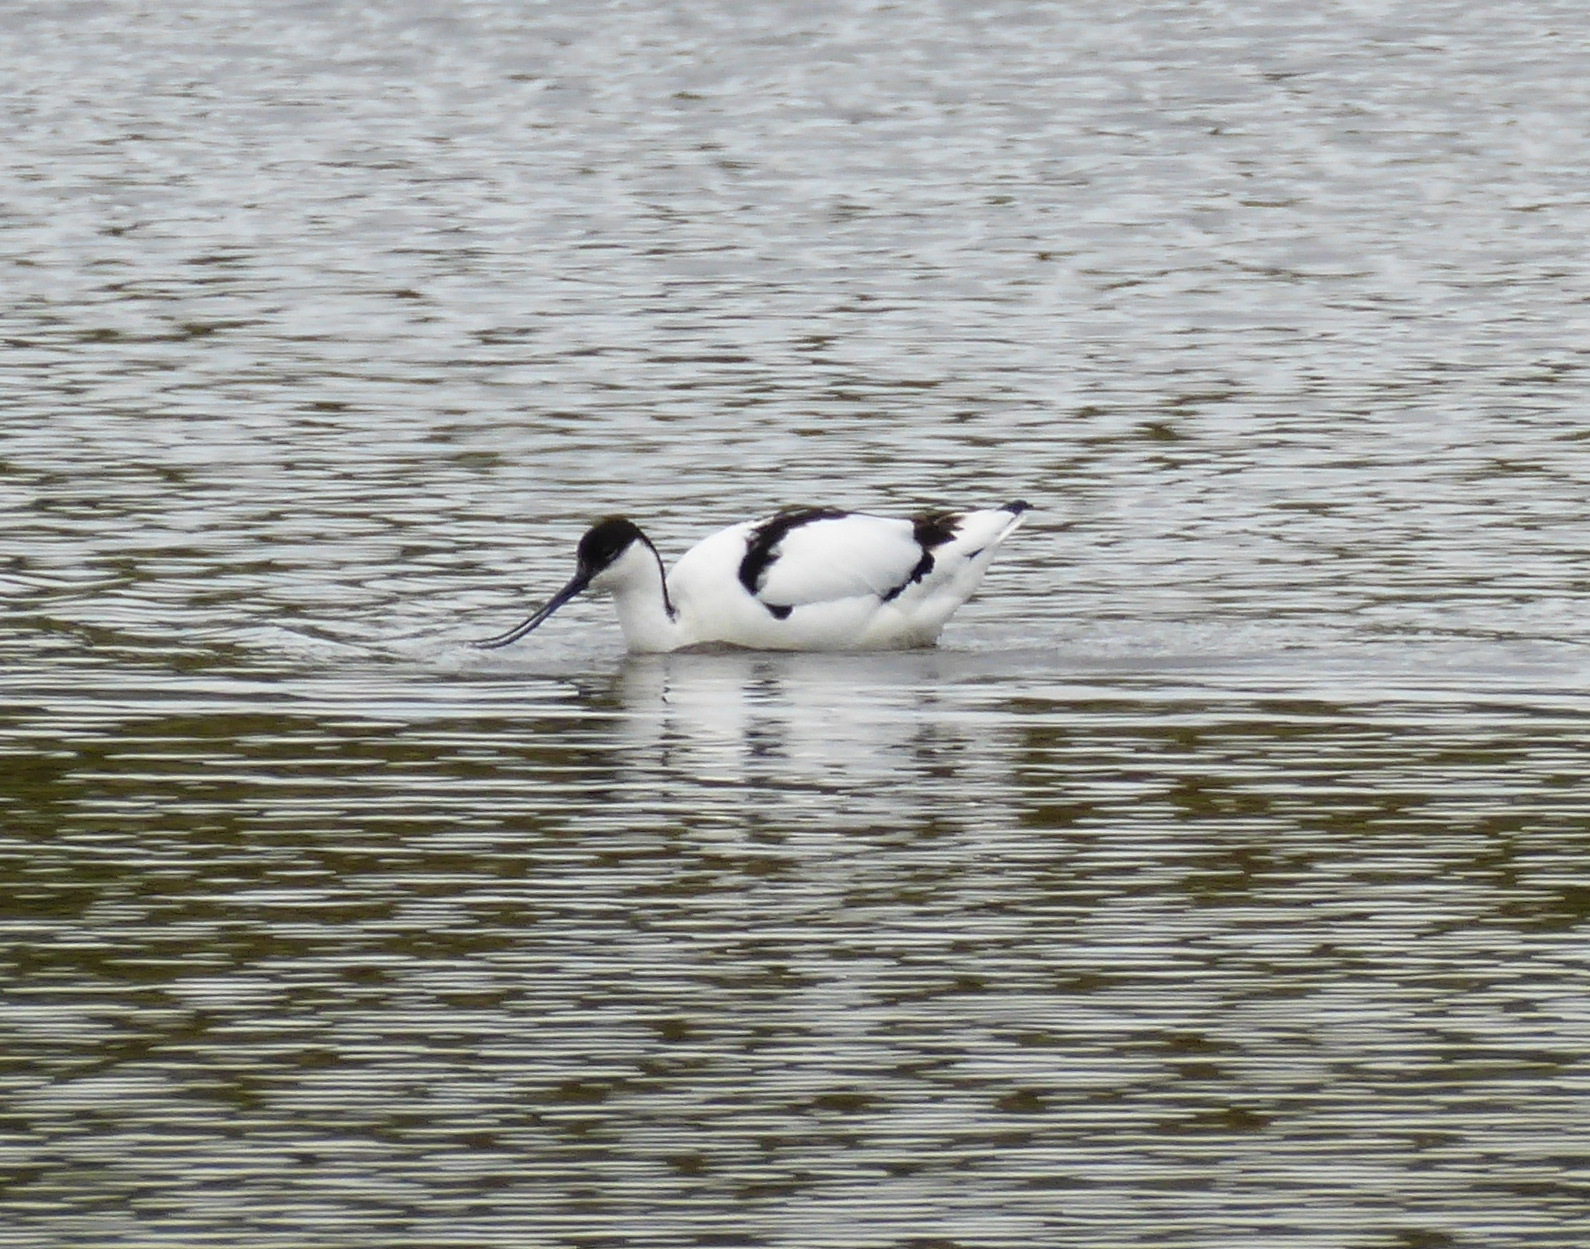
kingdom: Animalia
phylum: Chordata
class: Aves
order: Charadriiformes
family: Recurvirostridae
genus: Recurvirostra
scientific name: Recurvirostra avosetta
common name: Pied avocet
